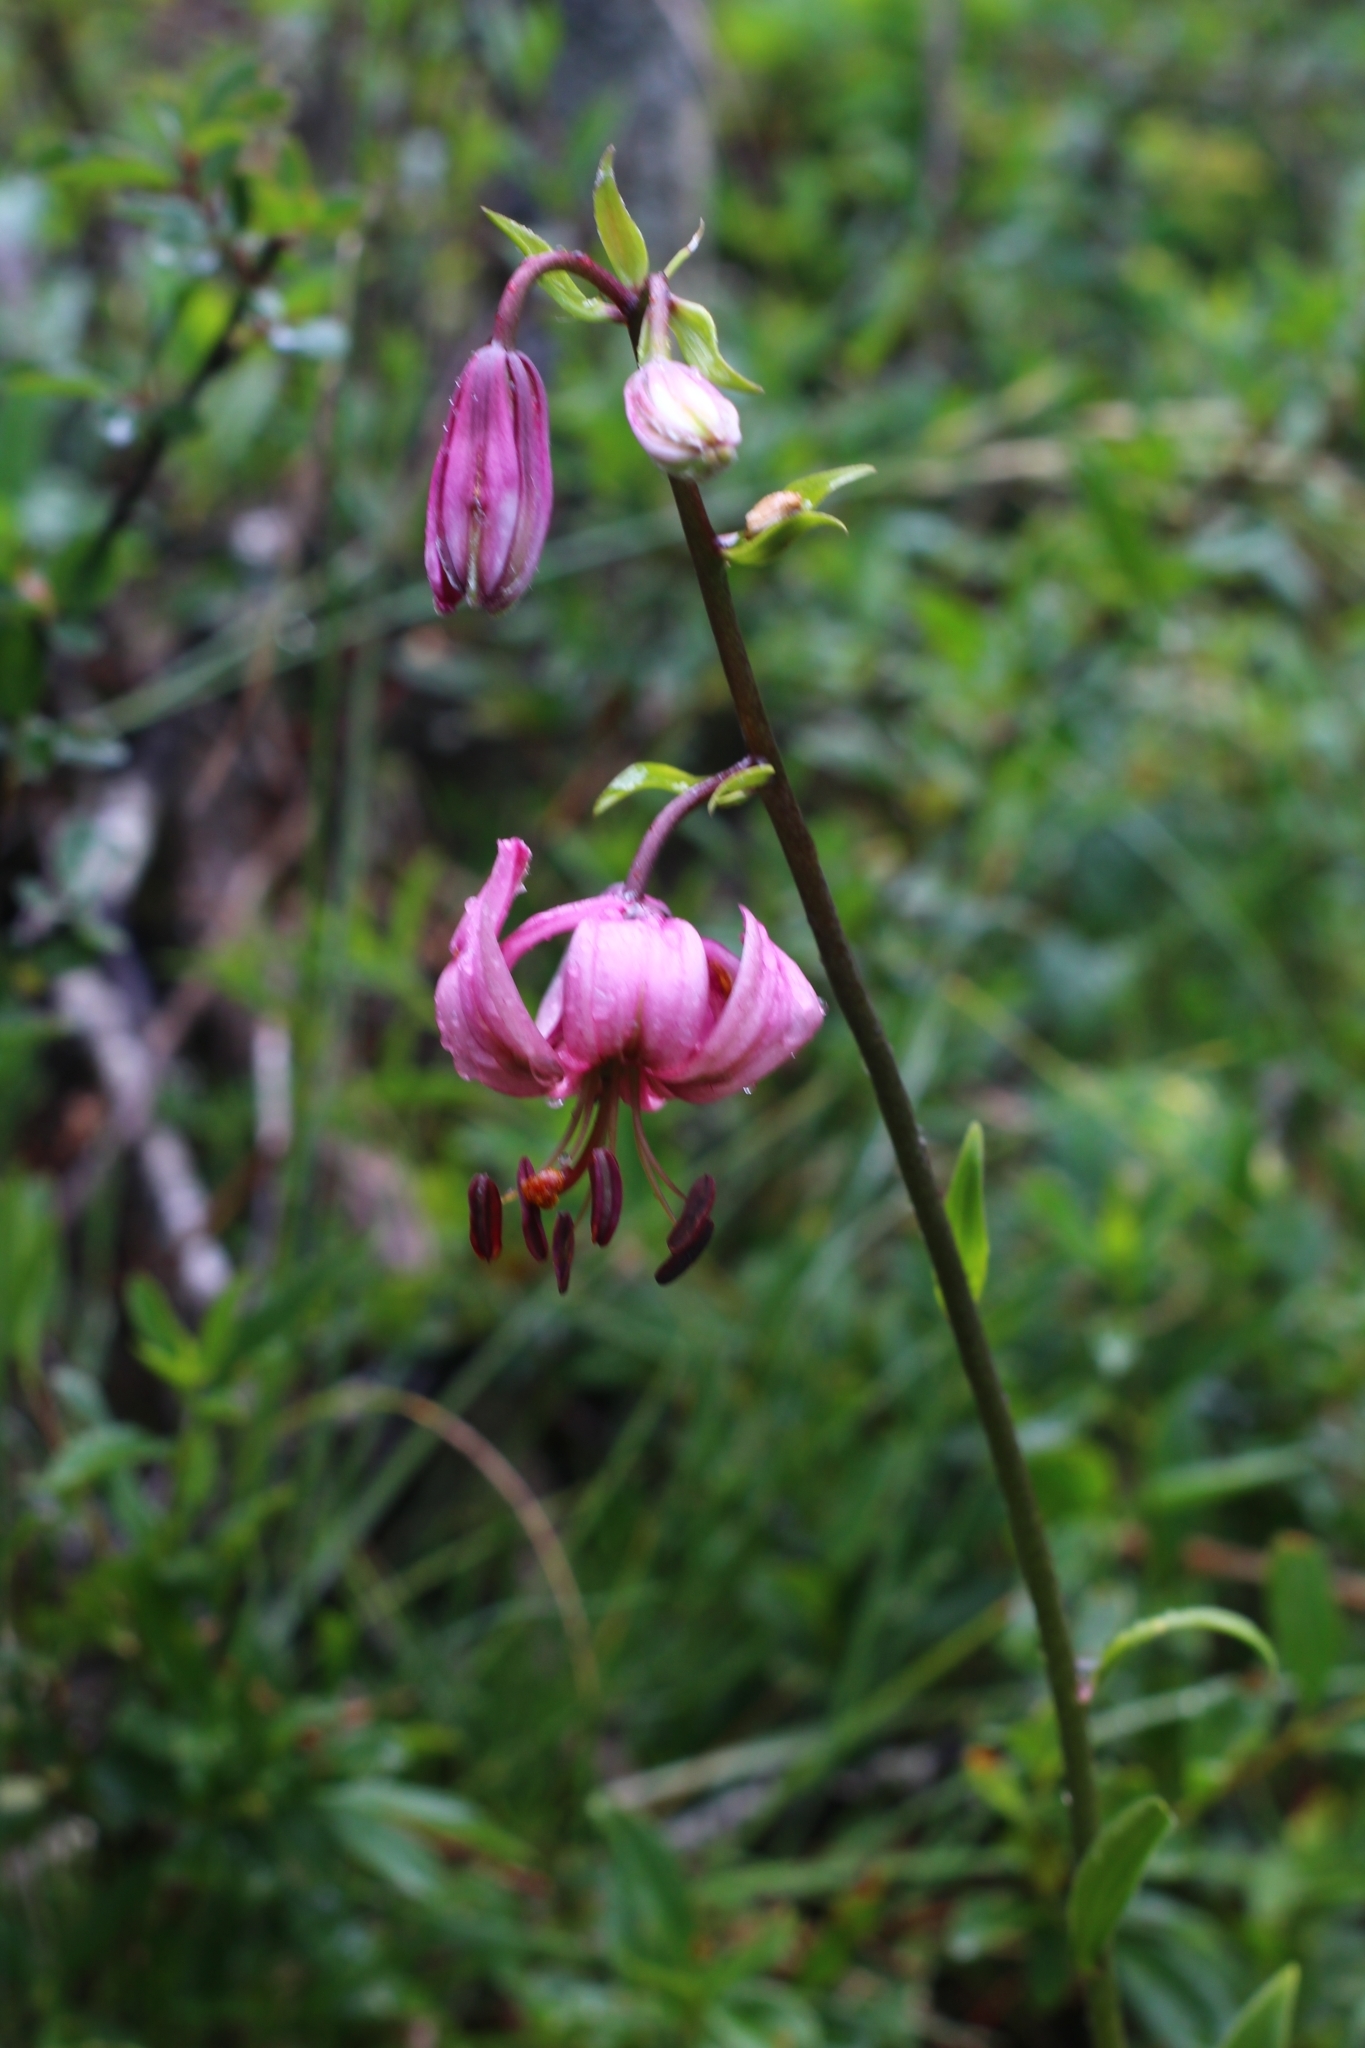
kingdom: Plantae
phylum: Tracheophyta
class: Liliopsida
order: Liliales
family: Liliaceae
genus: Lilium
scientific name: Lilium martagon
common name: Martagon lily
